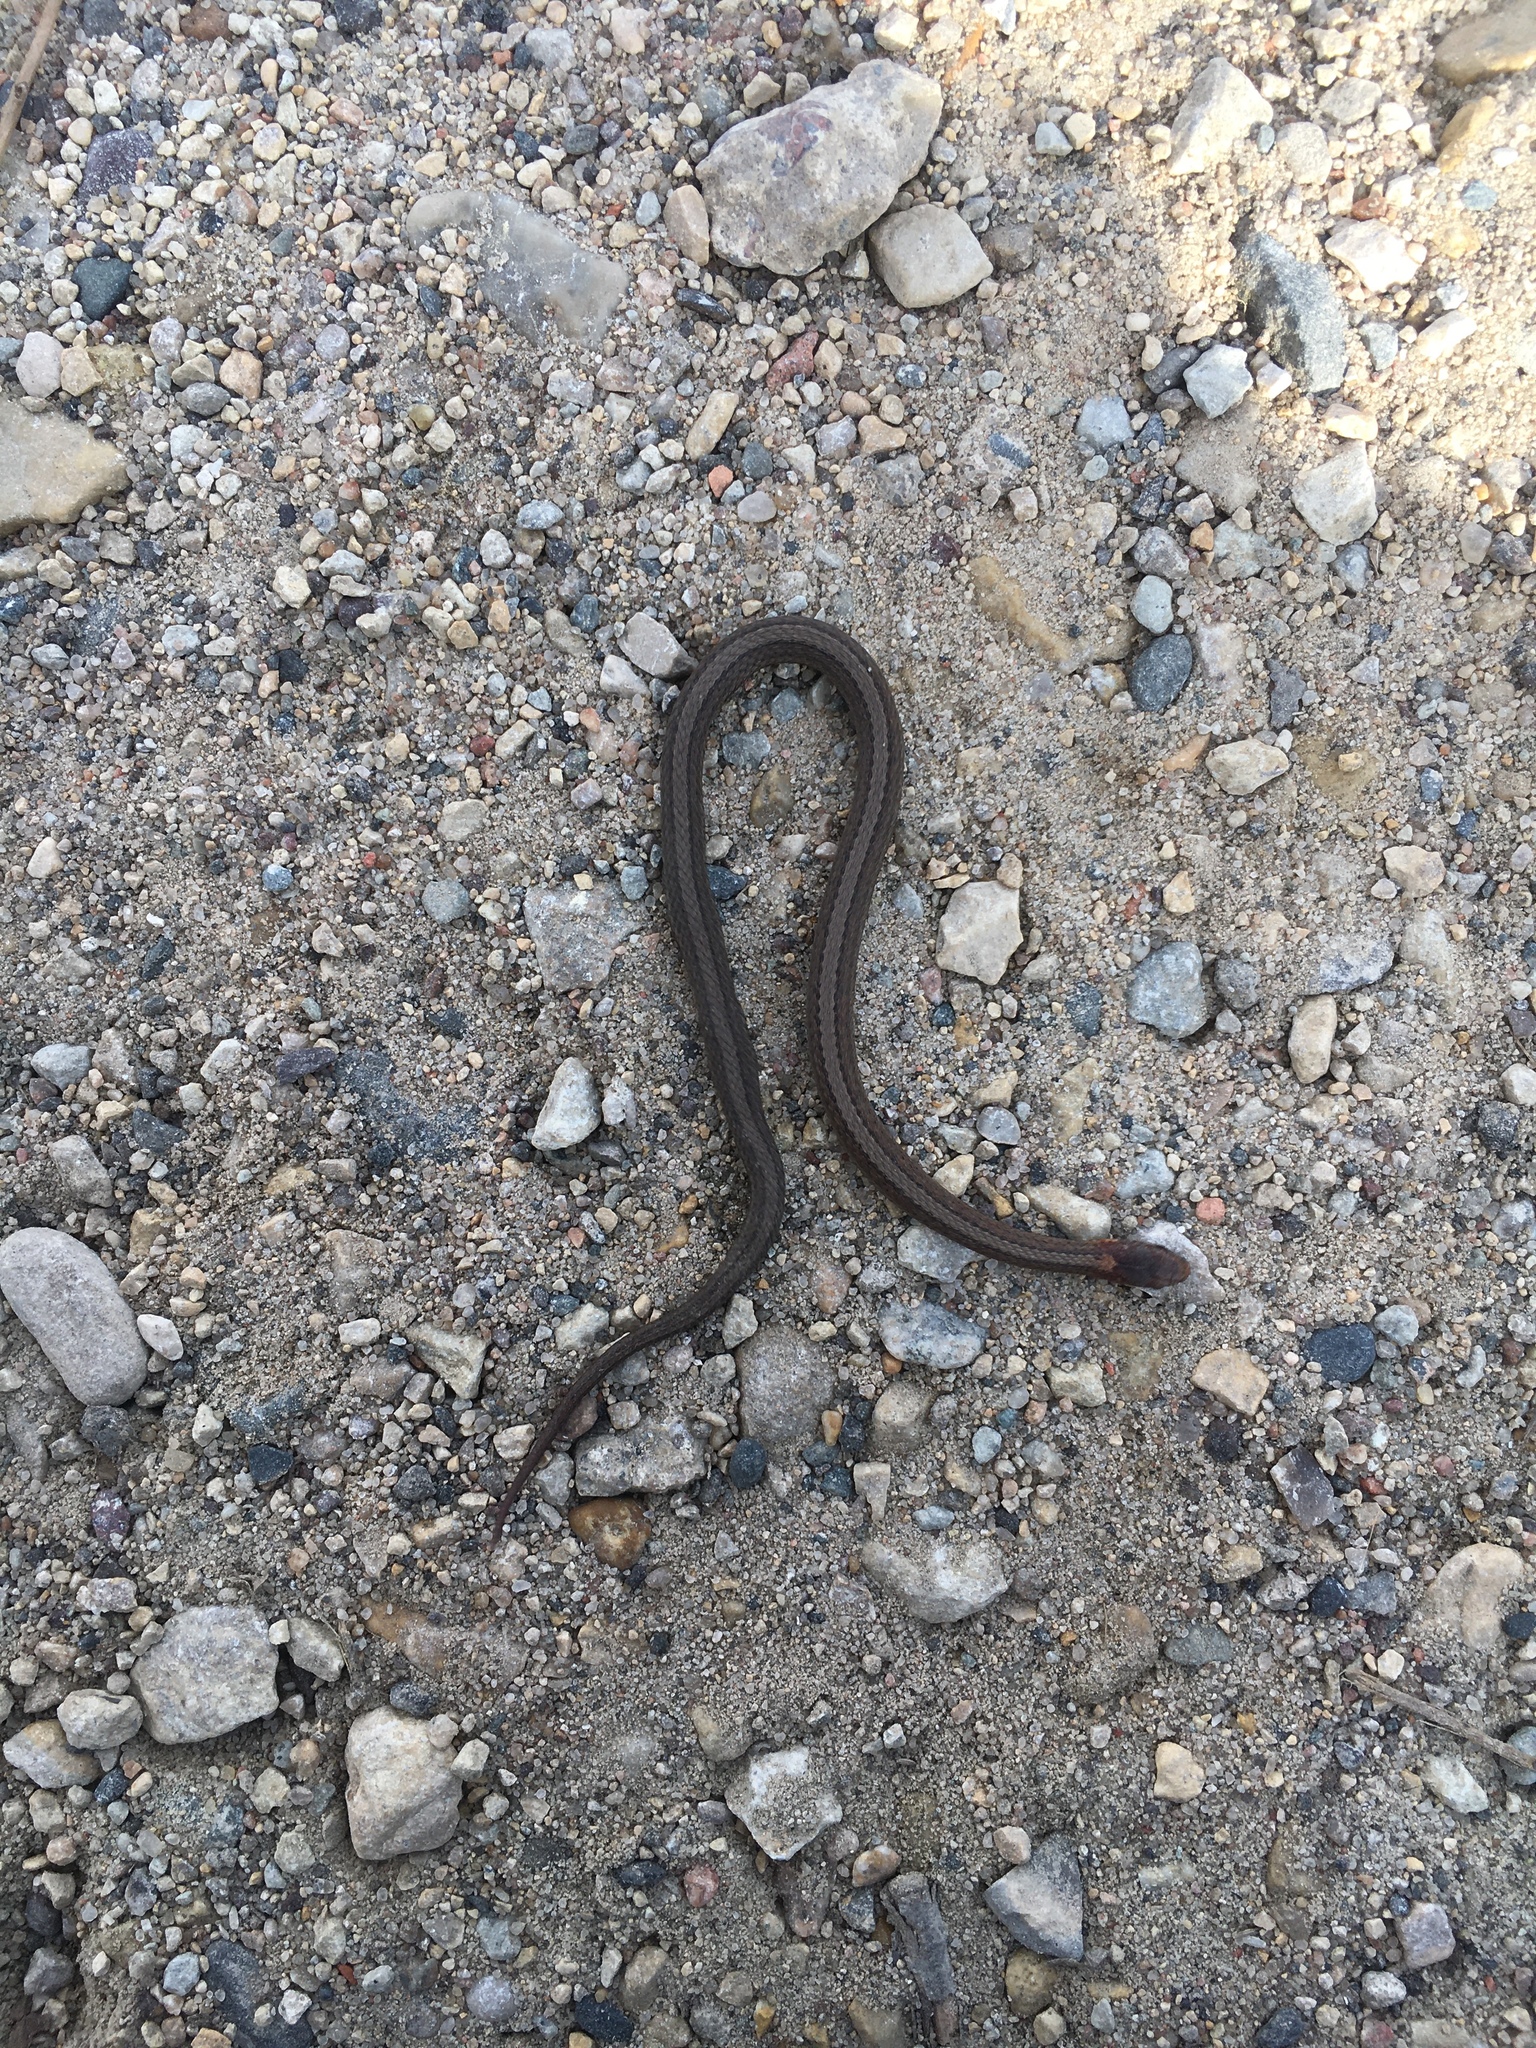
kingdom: Animalia
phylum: Chordata
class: Squamata
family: Colubridae
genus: Storeria
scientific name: Storeria occipitomaculata
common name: Redbelly snake
